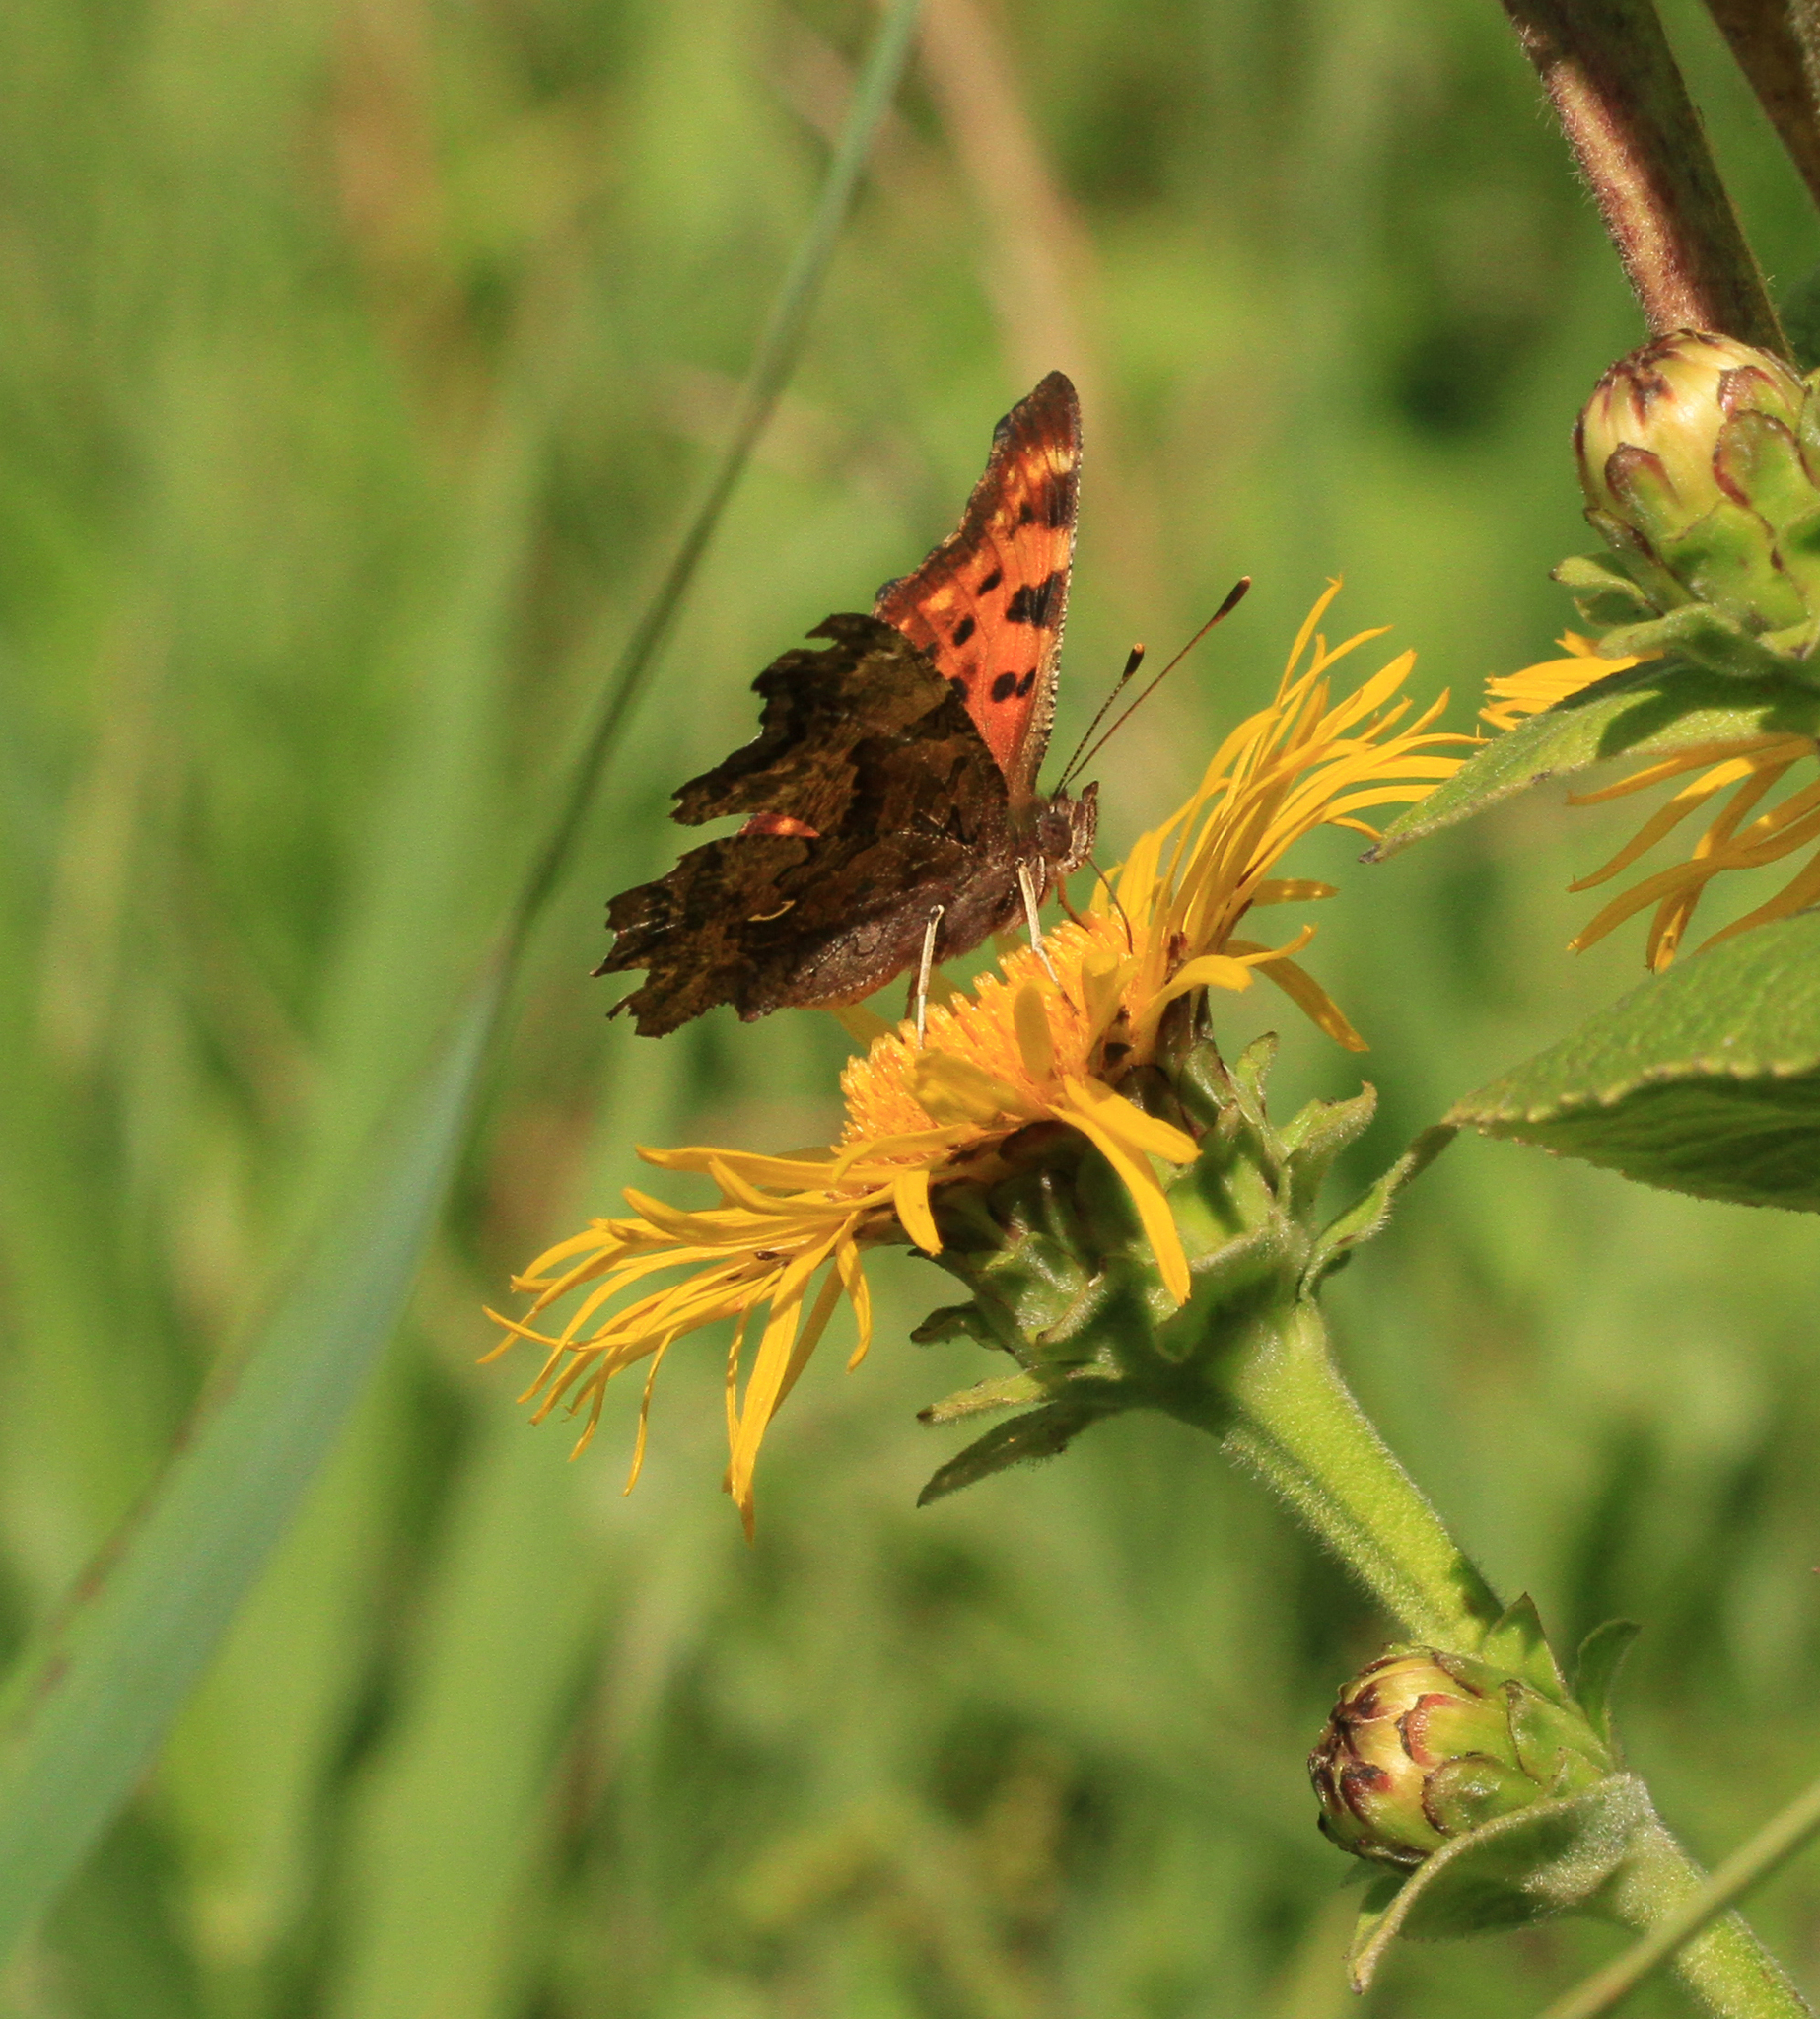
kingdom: Animalia
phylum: Arthropoda
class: Insecta
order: Lepidoptera
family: Nymphalidae
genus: Polygonia
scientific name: Polygonia c-album
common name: Comma
